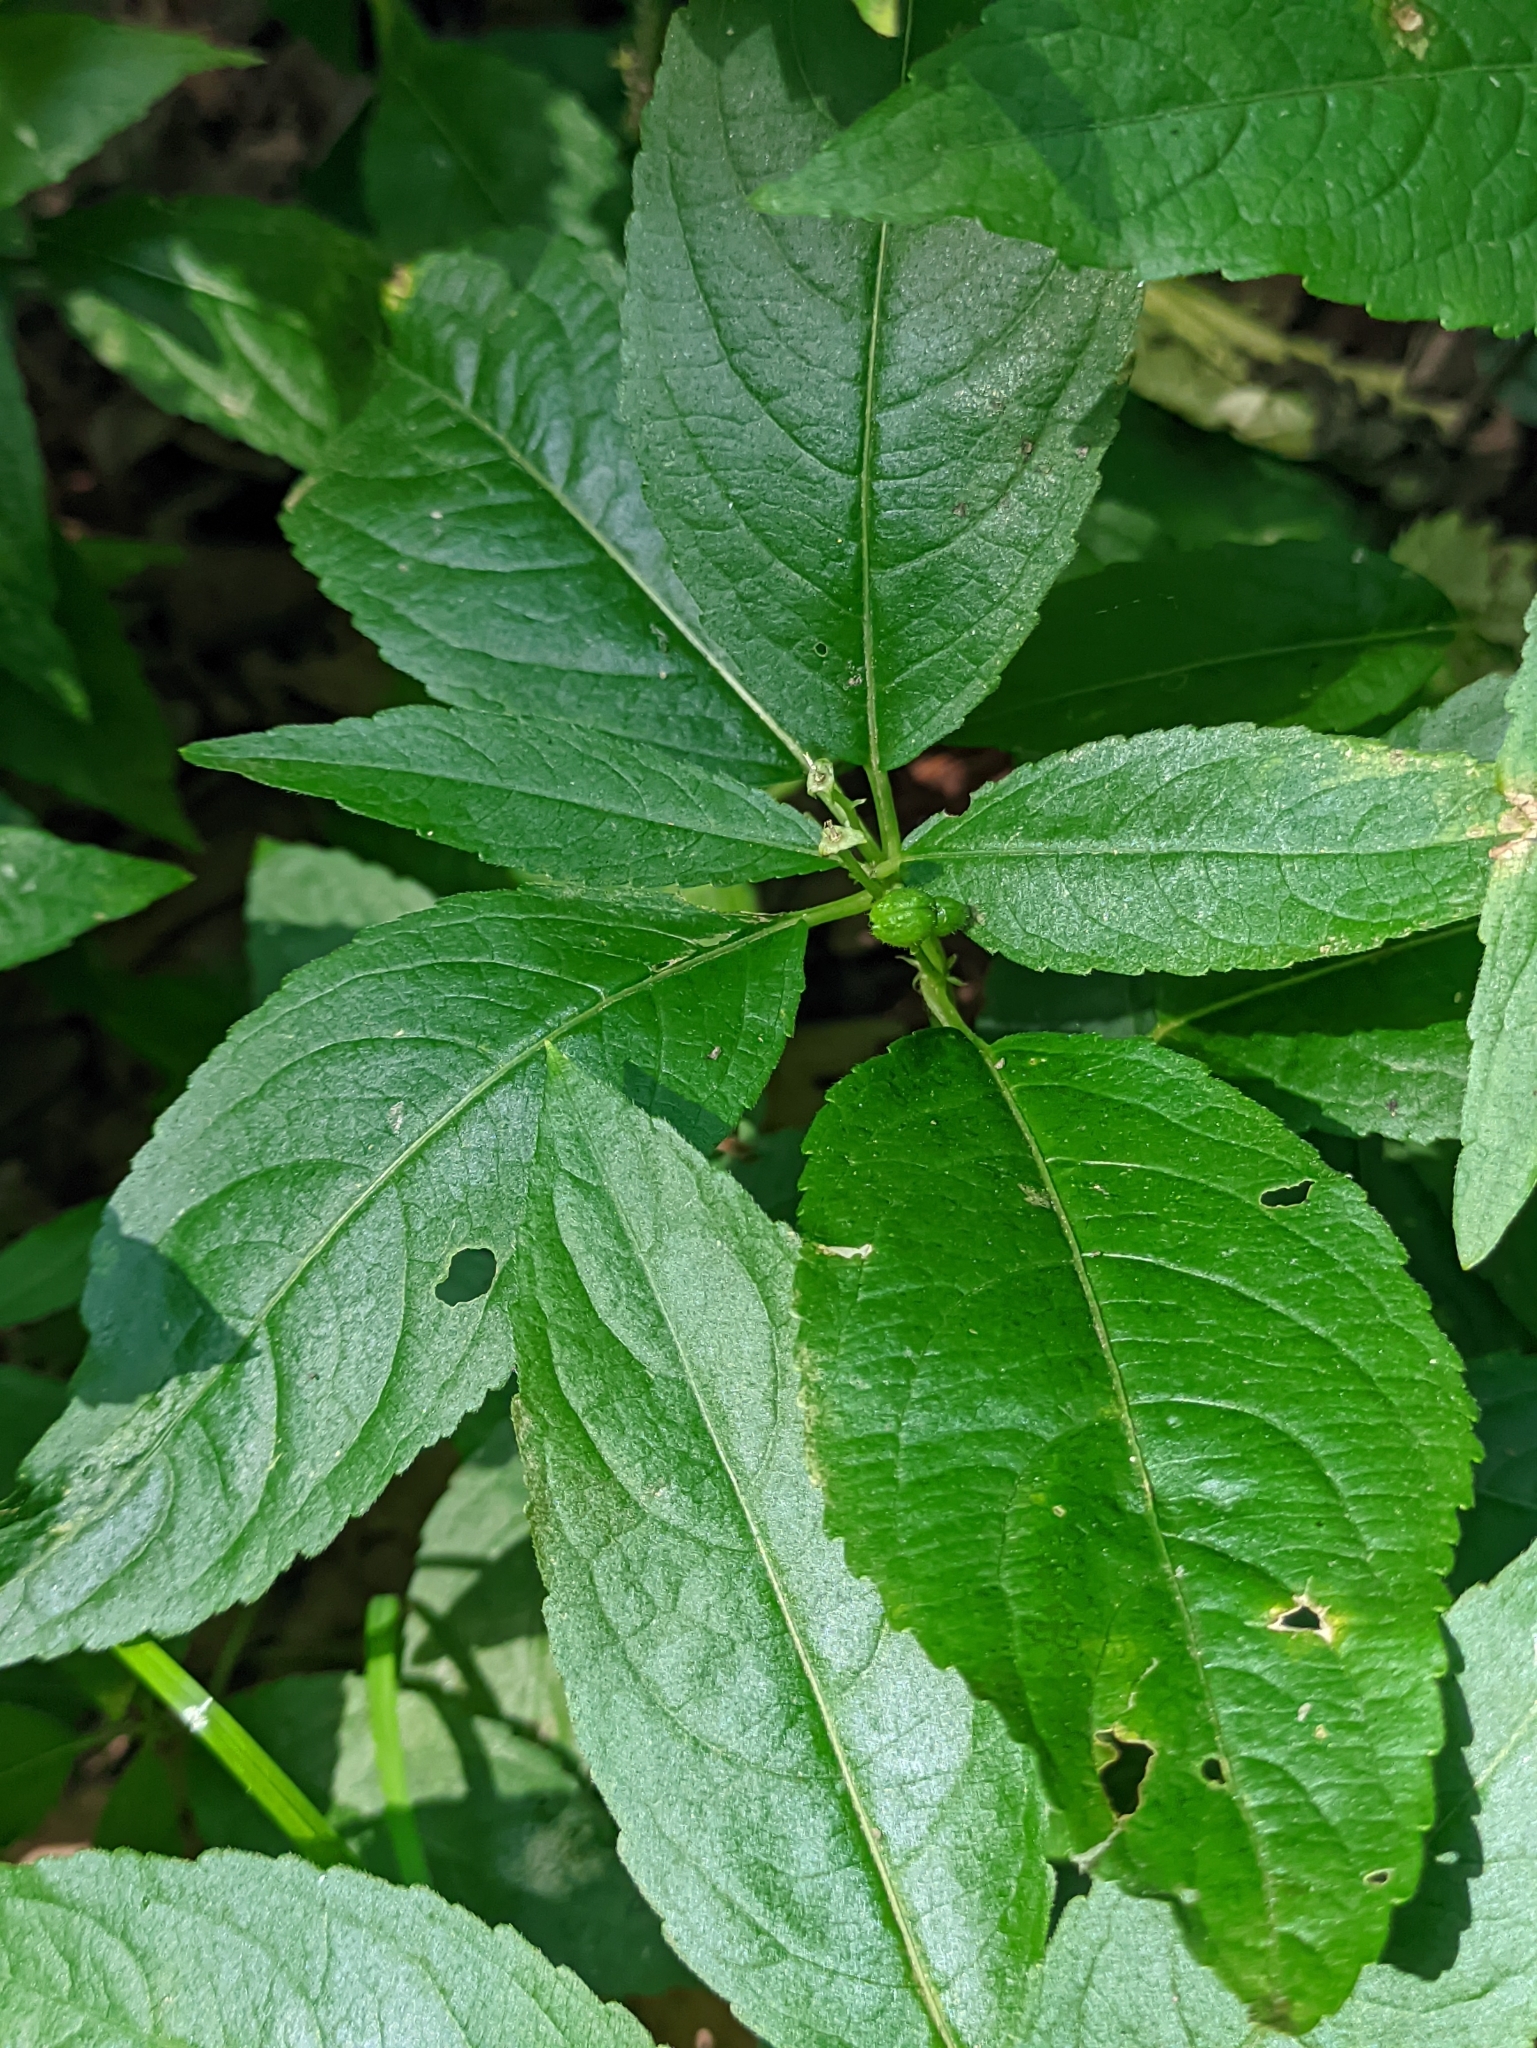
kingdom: Plantae
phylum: Tracheophyta
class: Magnoliopsida
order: Malpighiales
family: Euphorbiaceae
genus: Mercurialis
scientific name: Mercurialis perennis
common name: Dog mercury
